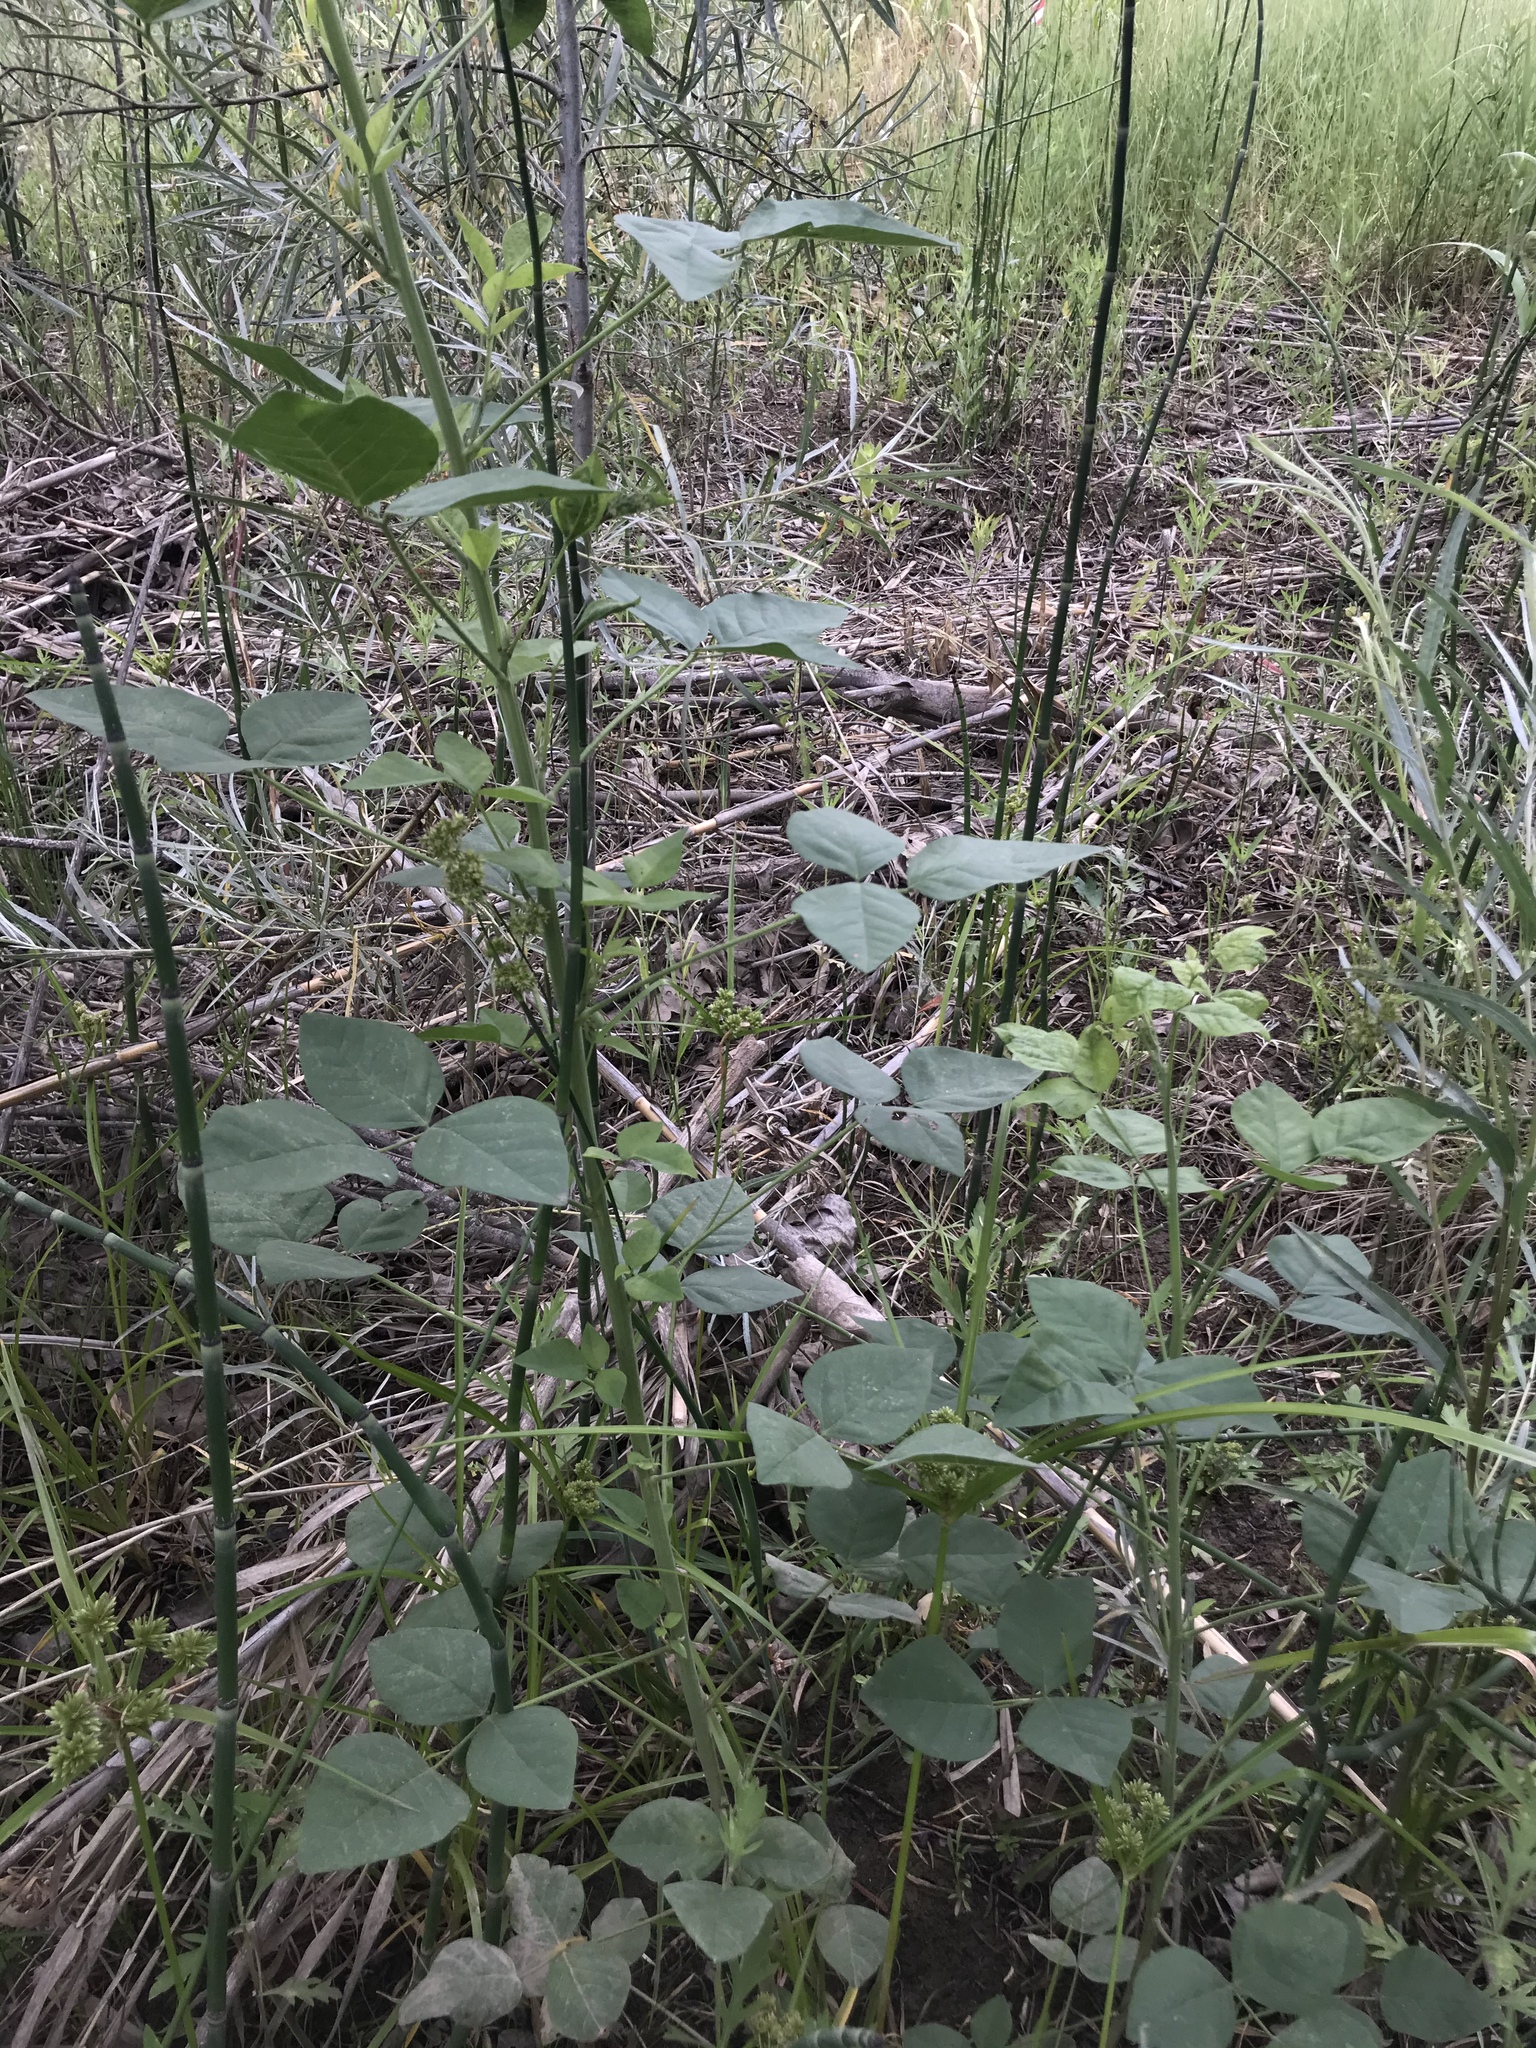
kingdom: Plantae
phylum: Tracheophyta
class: Magnoliopsida
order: Fabales
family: Fabaceae
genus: Hoita
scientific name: Hoita macrostachya
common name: Leatherroot
